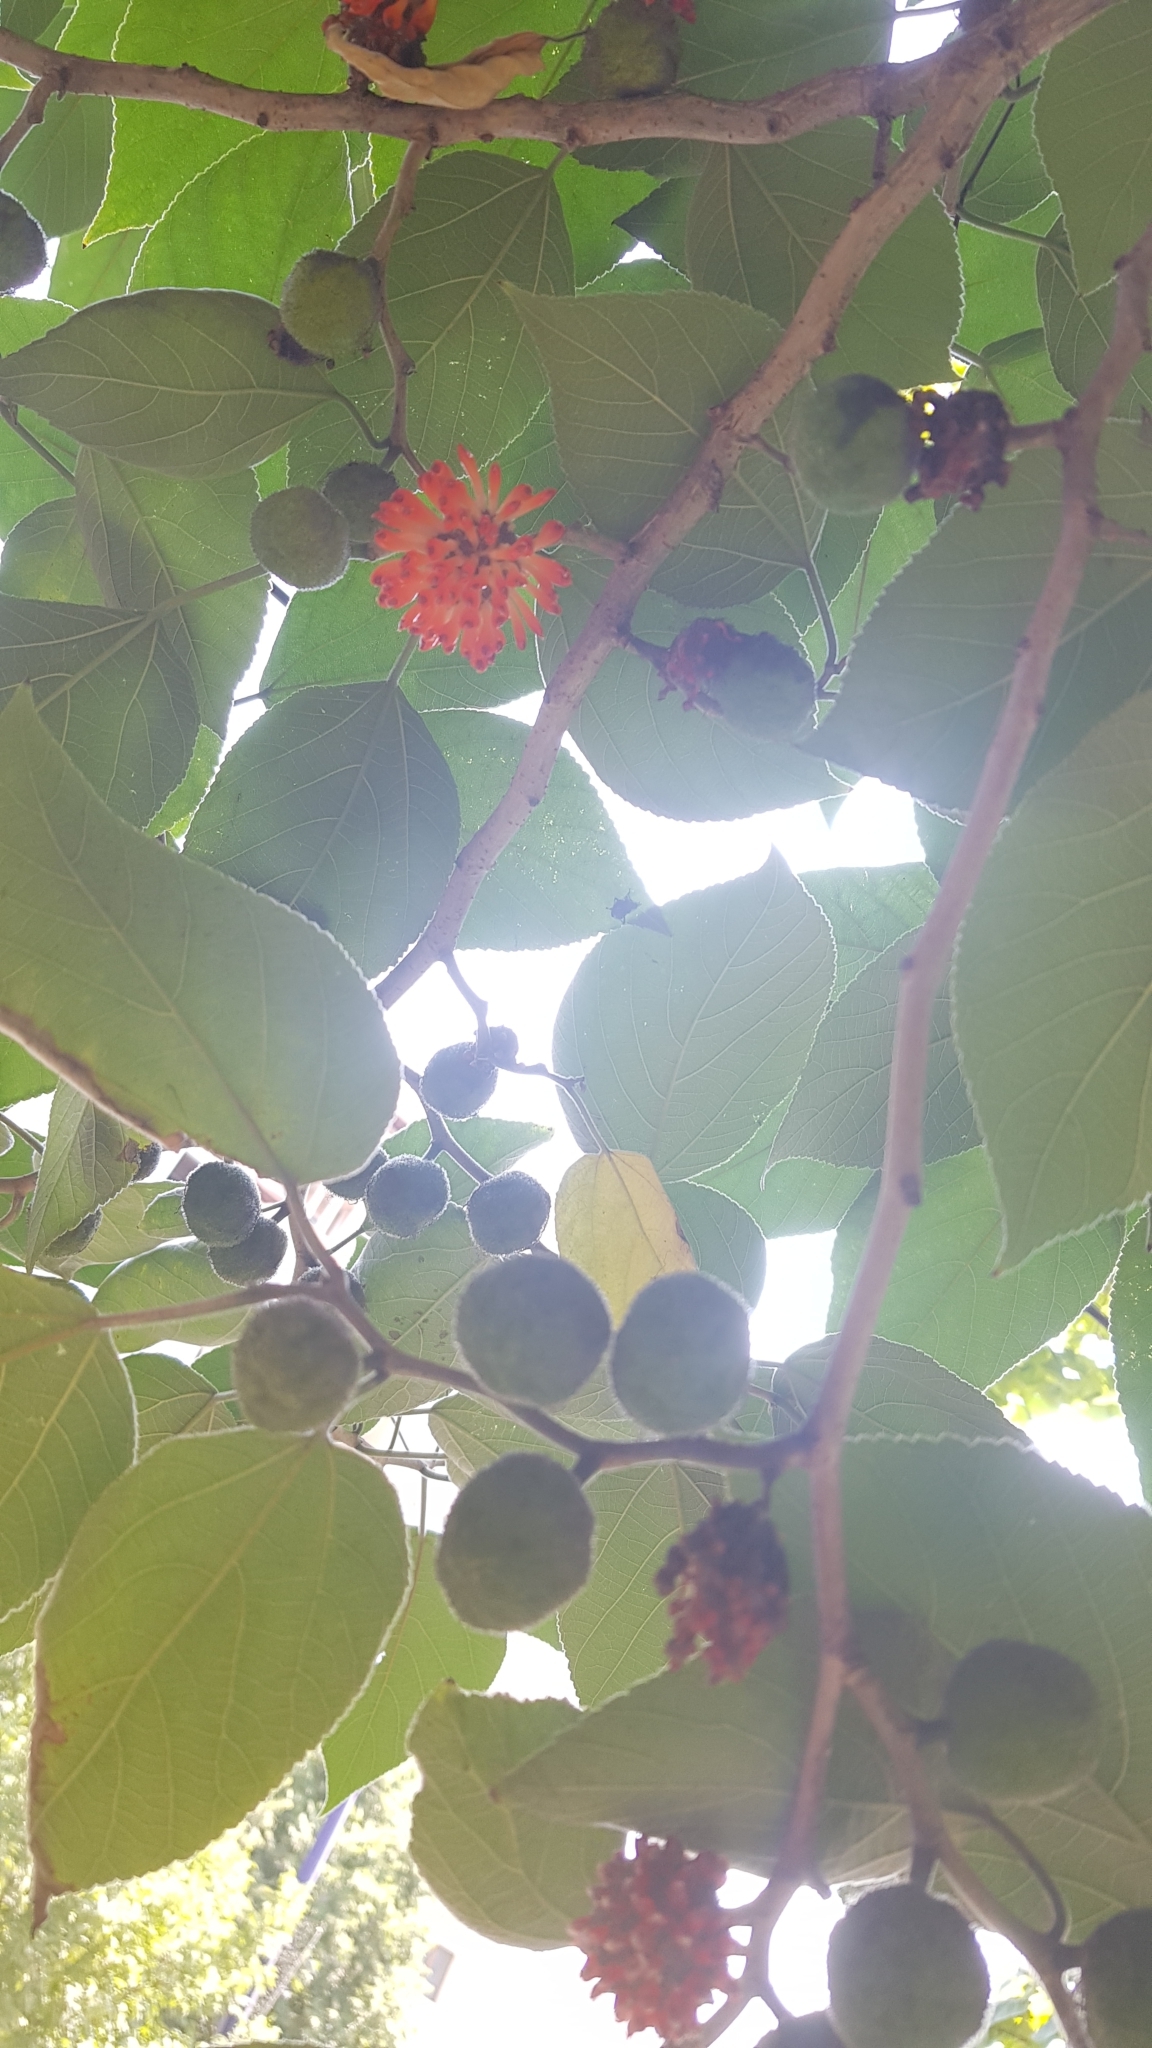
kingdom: Plantae
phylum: Tracheophyta
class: Magnoliopsida
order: Rosales
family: Moraceae
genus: Broussonetia
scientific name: Broussonetia papyrifera
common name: Paper mulberry
